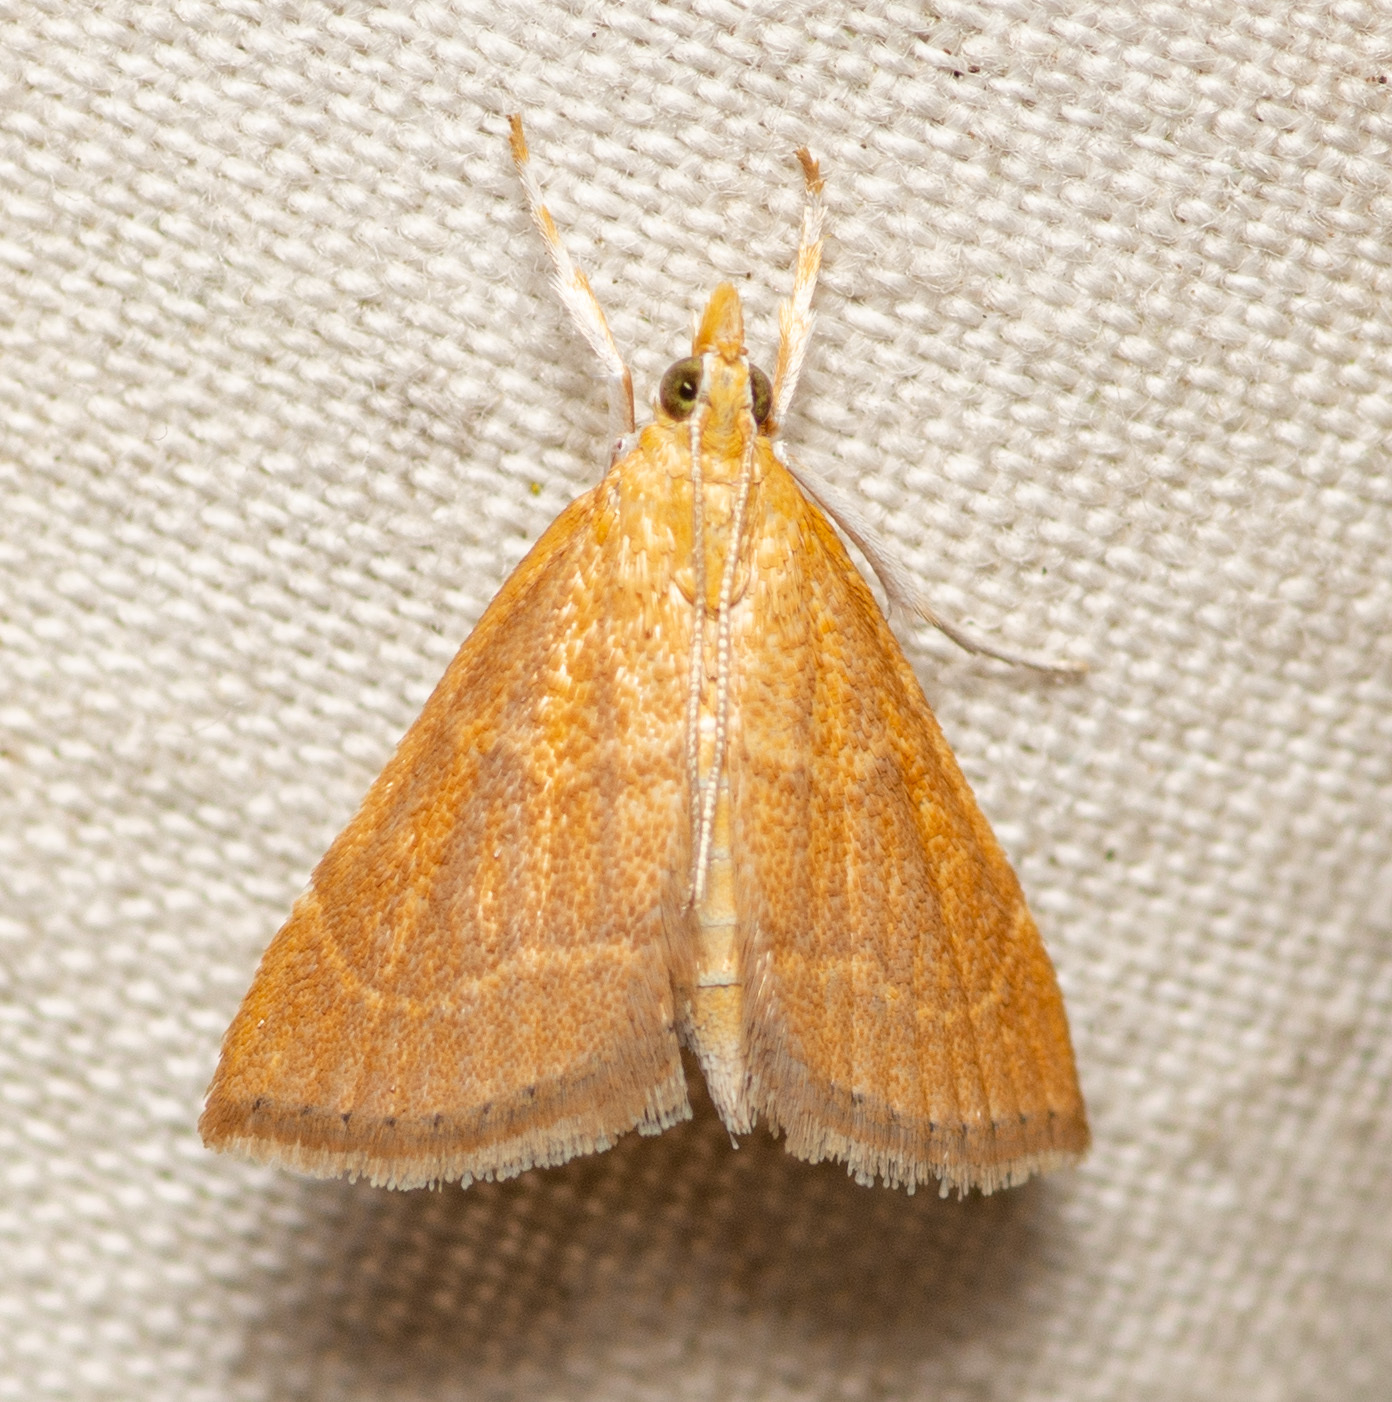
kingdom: Animalia
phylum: Arthropoda
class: Insecta
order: Lepidoptera
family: Crambidae
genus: Glaphyria
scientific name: Glaphyria invisalis
